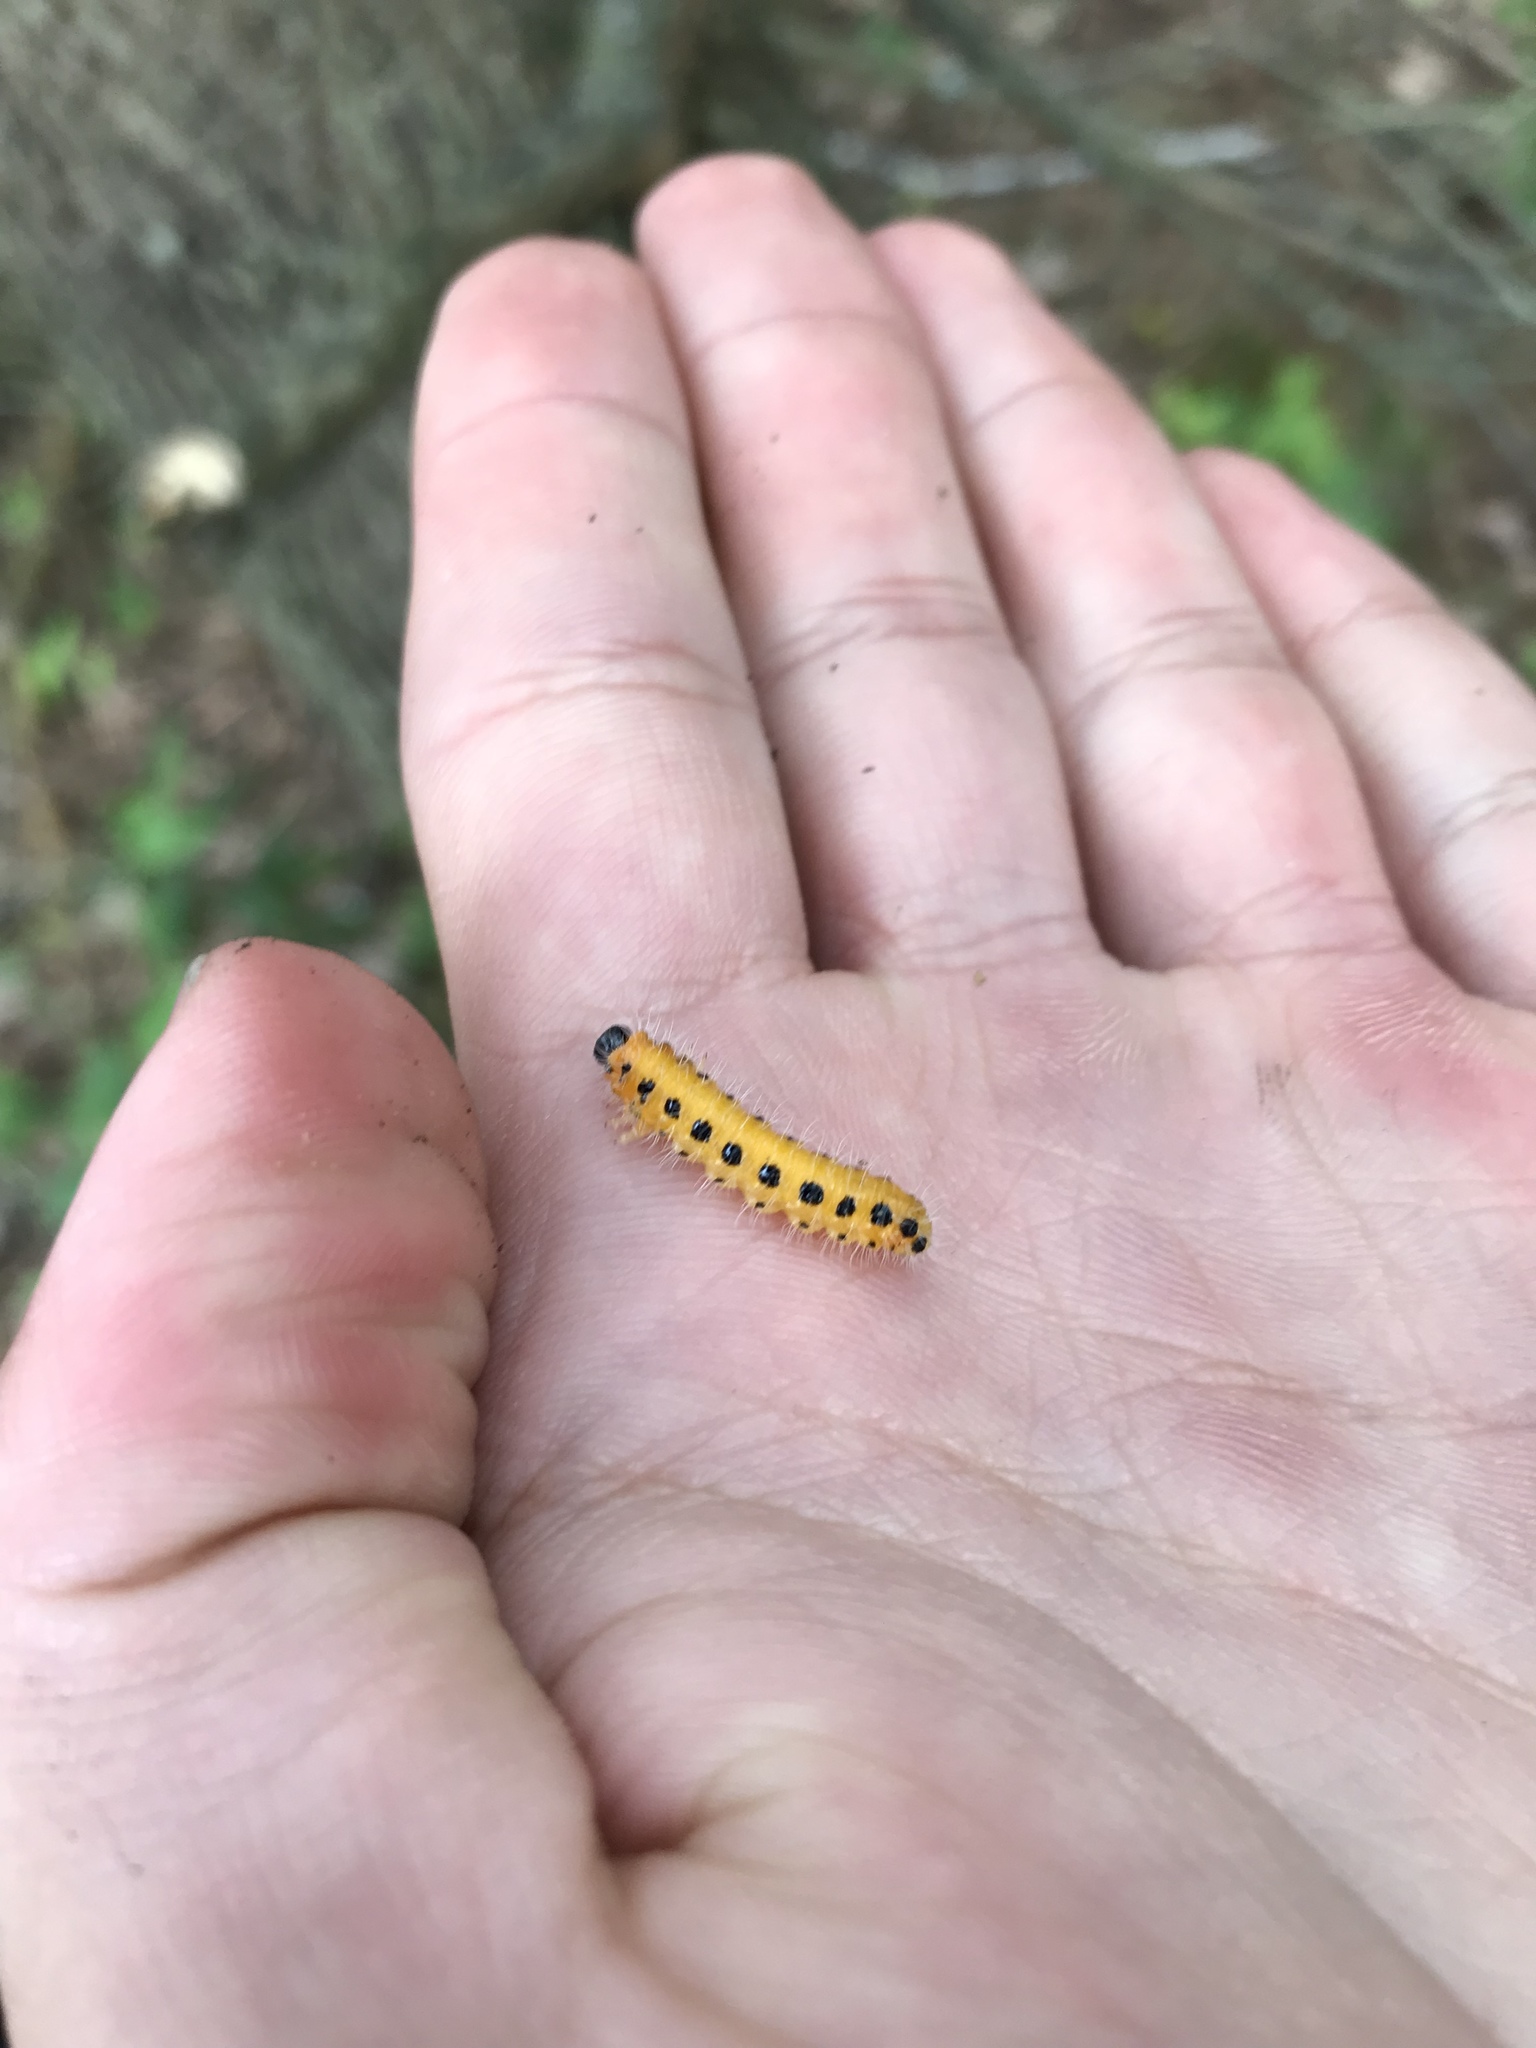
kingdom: Animalia
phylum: Arthropoda
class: Insecta
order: Hymenoptera
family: Tenthredinidae
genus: Cladius
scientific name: Cladius grandis
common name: Common sawfly
